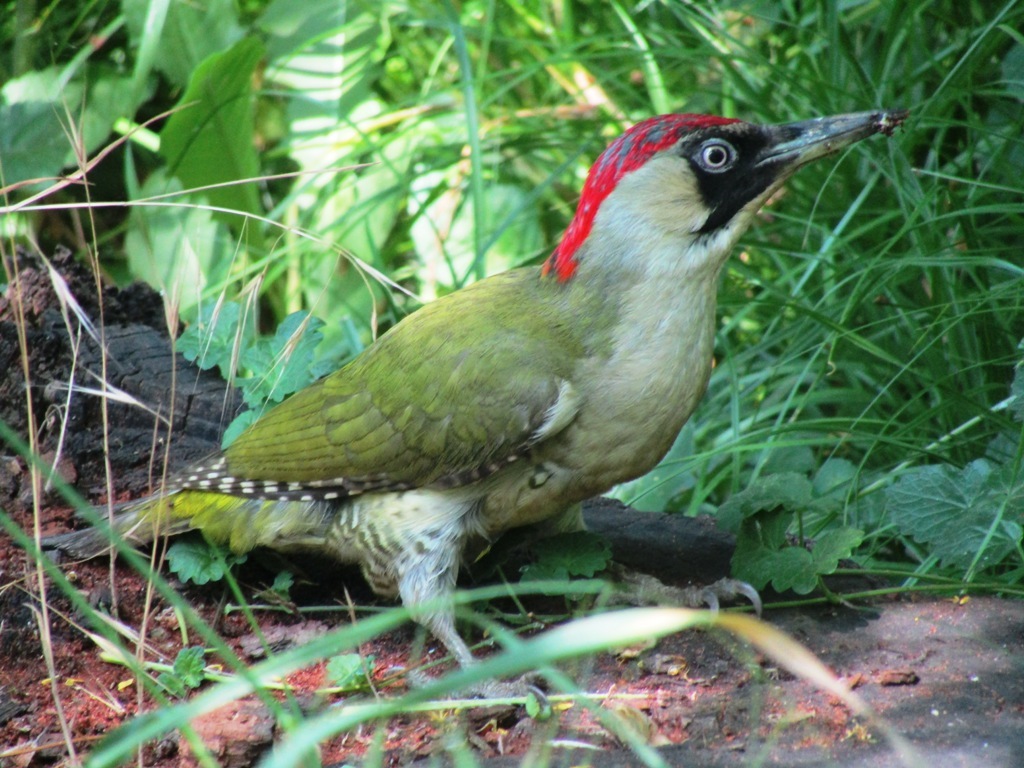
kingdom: Animalia
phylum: Chordata
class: Aves
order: Piciformes
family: Picidae
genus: Picus
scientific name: Picus viridis
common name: European green woodpecker
